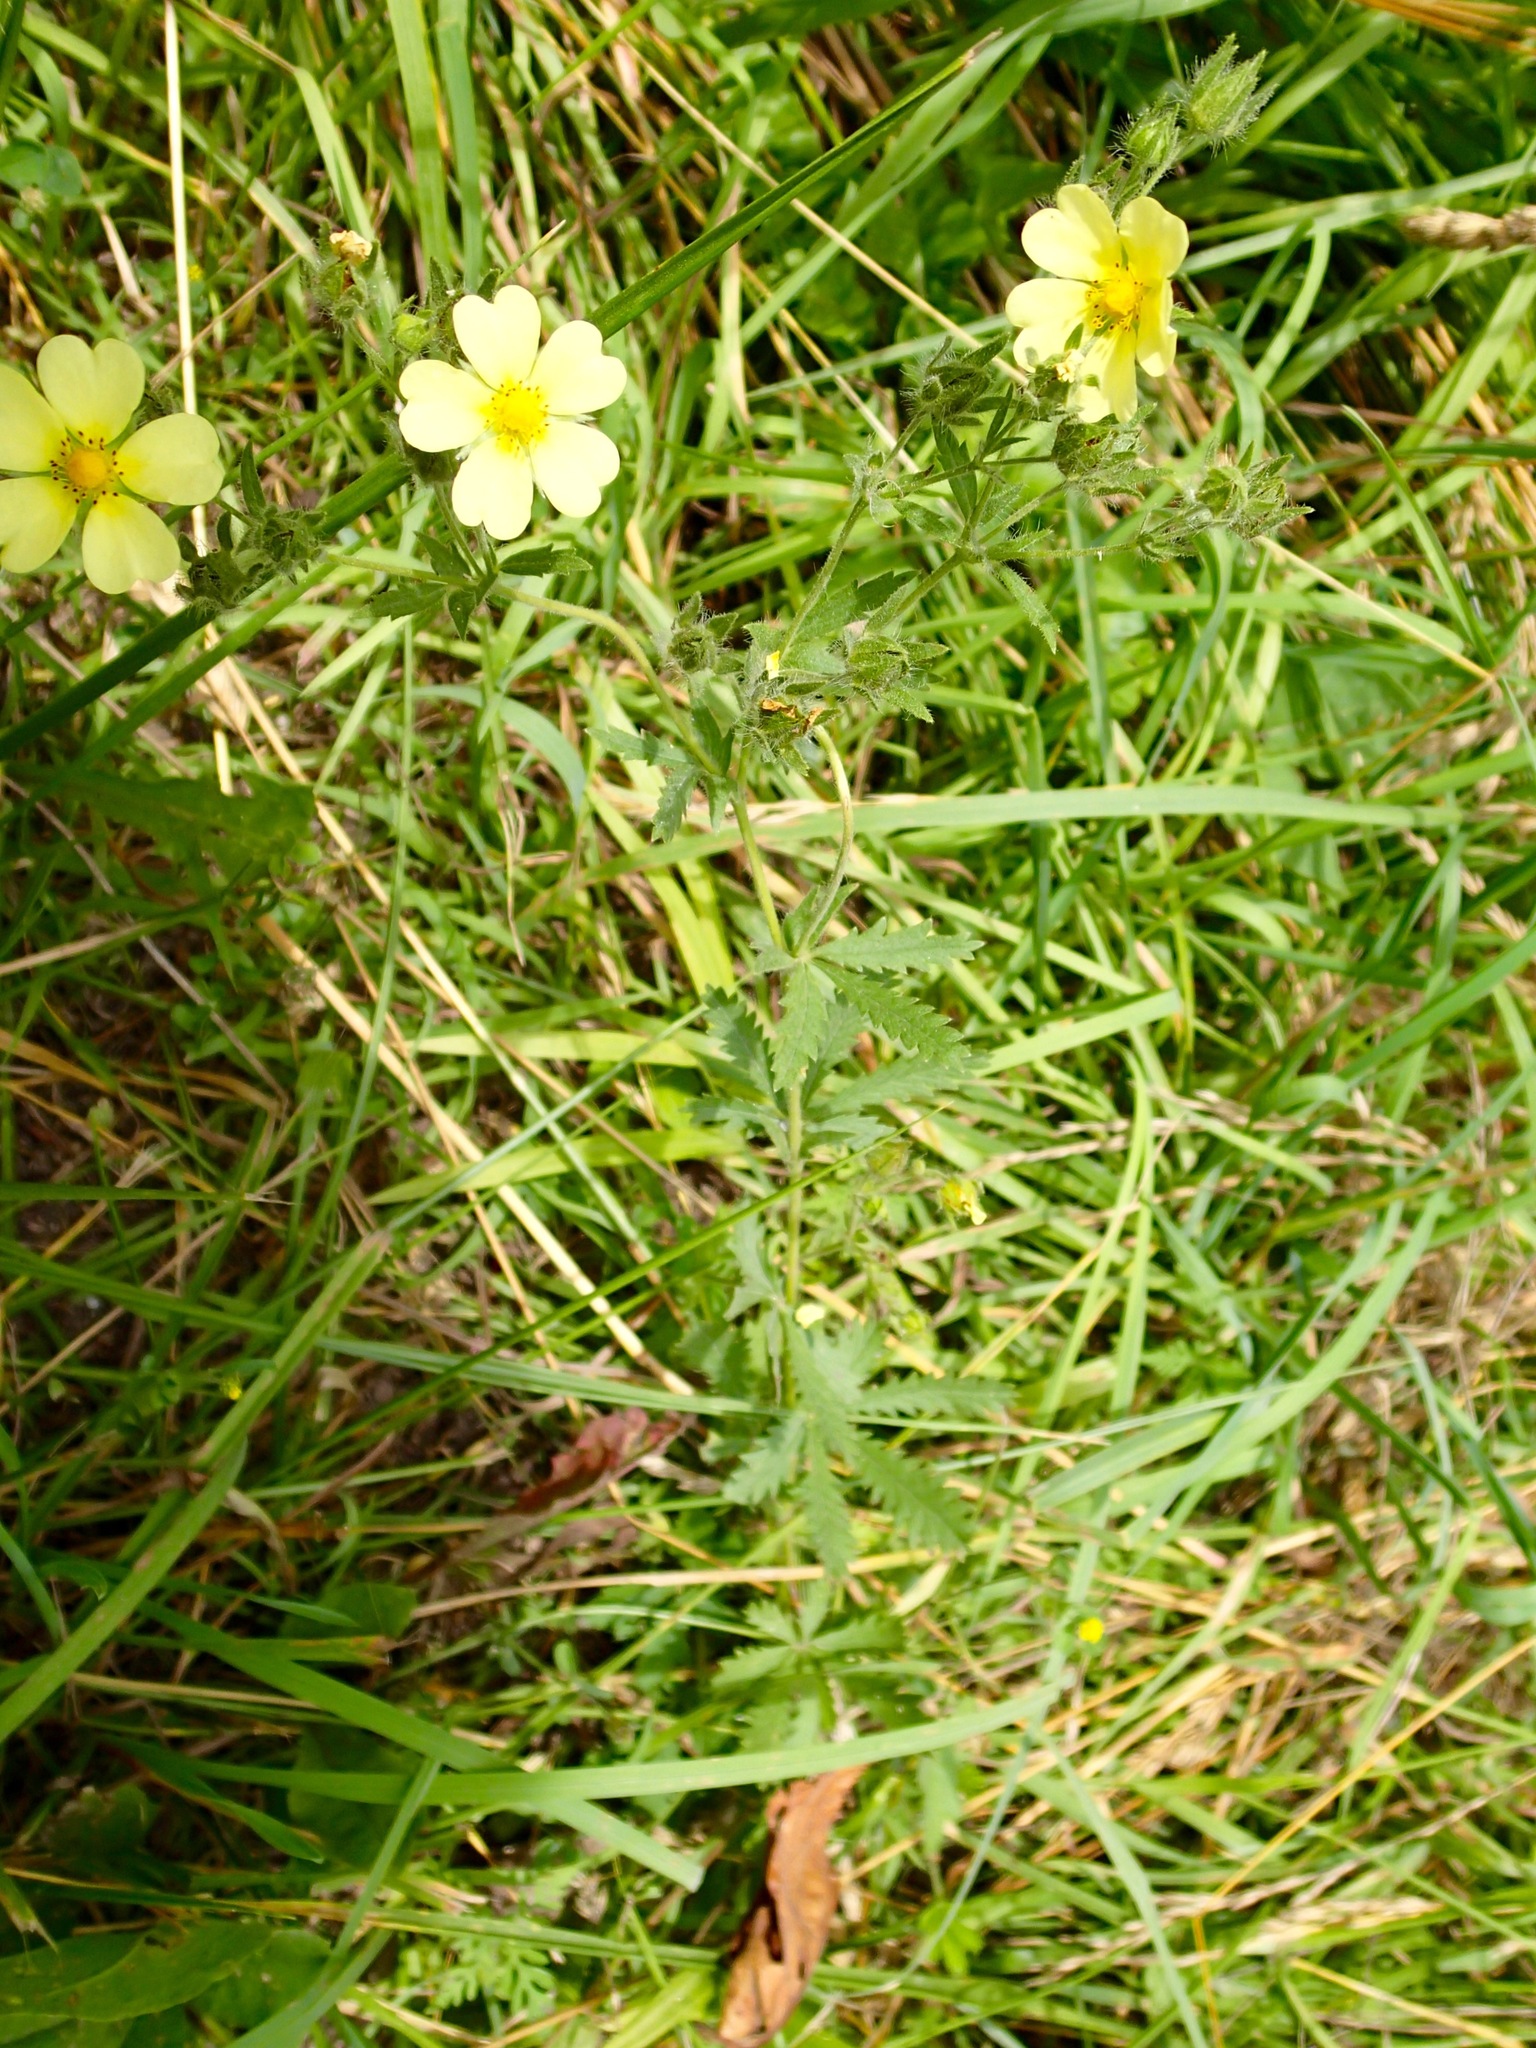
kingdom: Plantae
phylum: Tracheophyta
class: Magnoliopsida
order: Rosales
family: Rosaceae
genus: Potentilla
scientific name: Potentilla recta
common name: Sulphur cinquefoil
